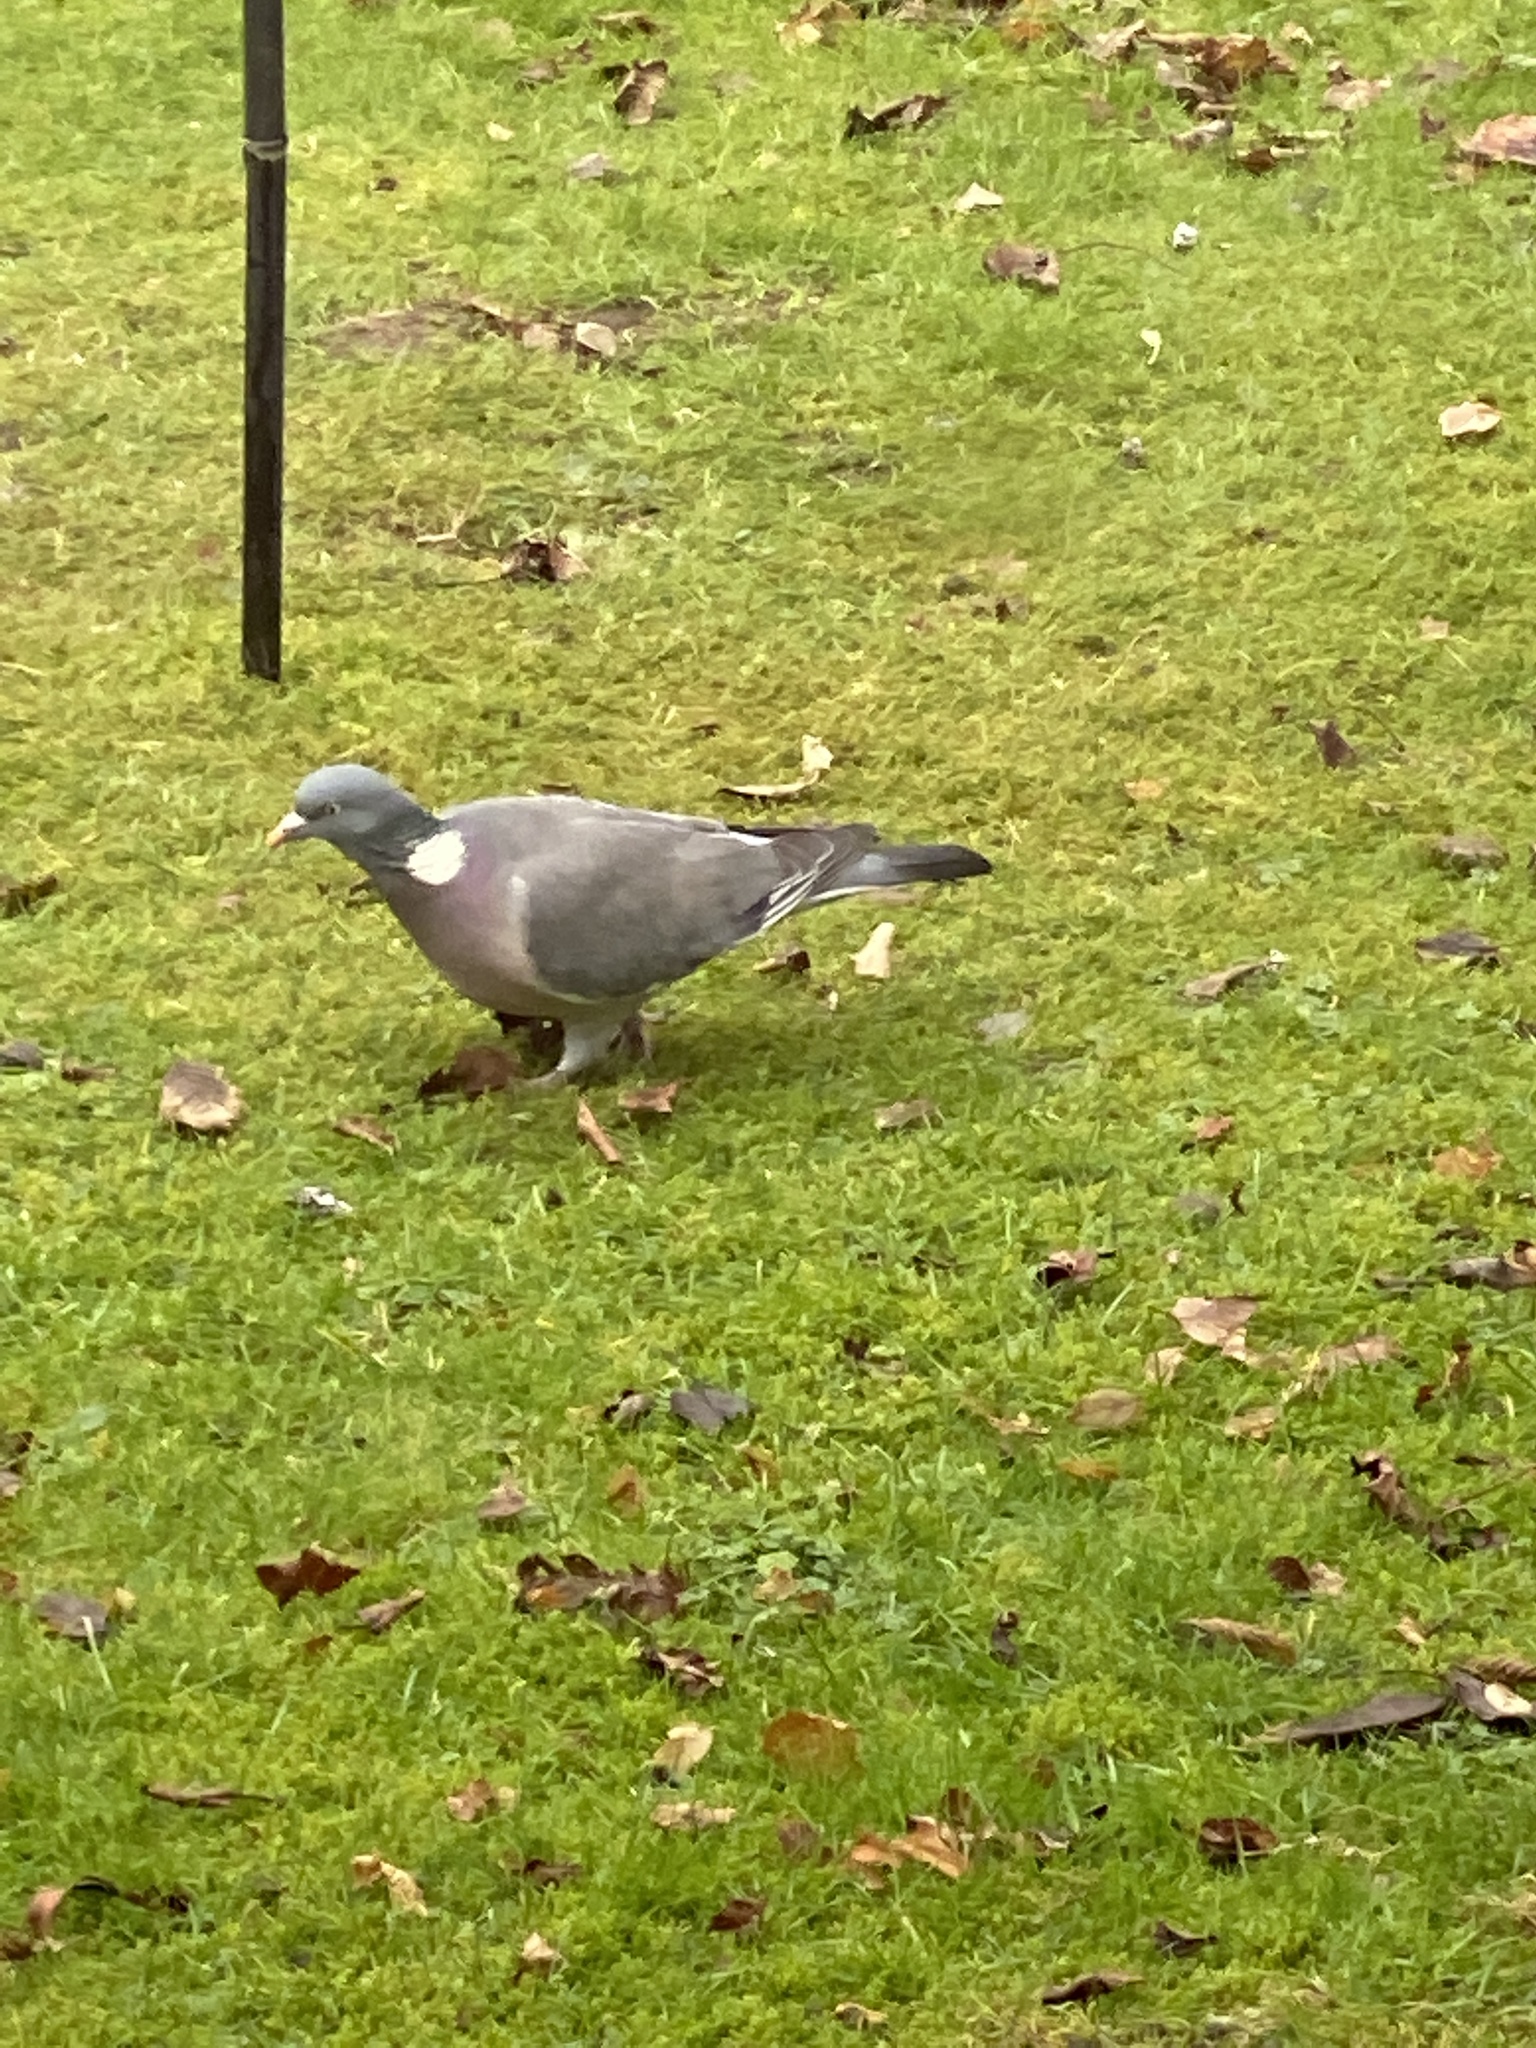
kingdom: Animalia
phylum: Chordata
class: Aves
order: Columbiformes
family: Columbidae
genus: Columba
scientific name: Columba palumbus
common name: Common wood pigeon
